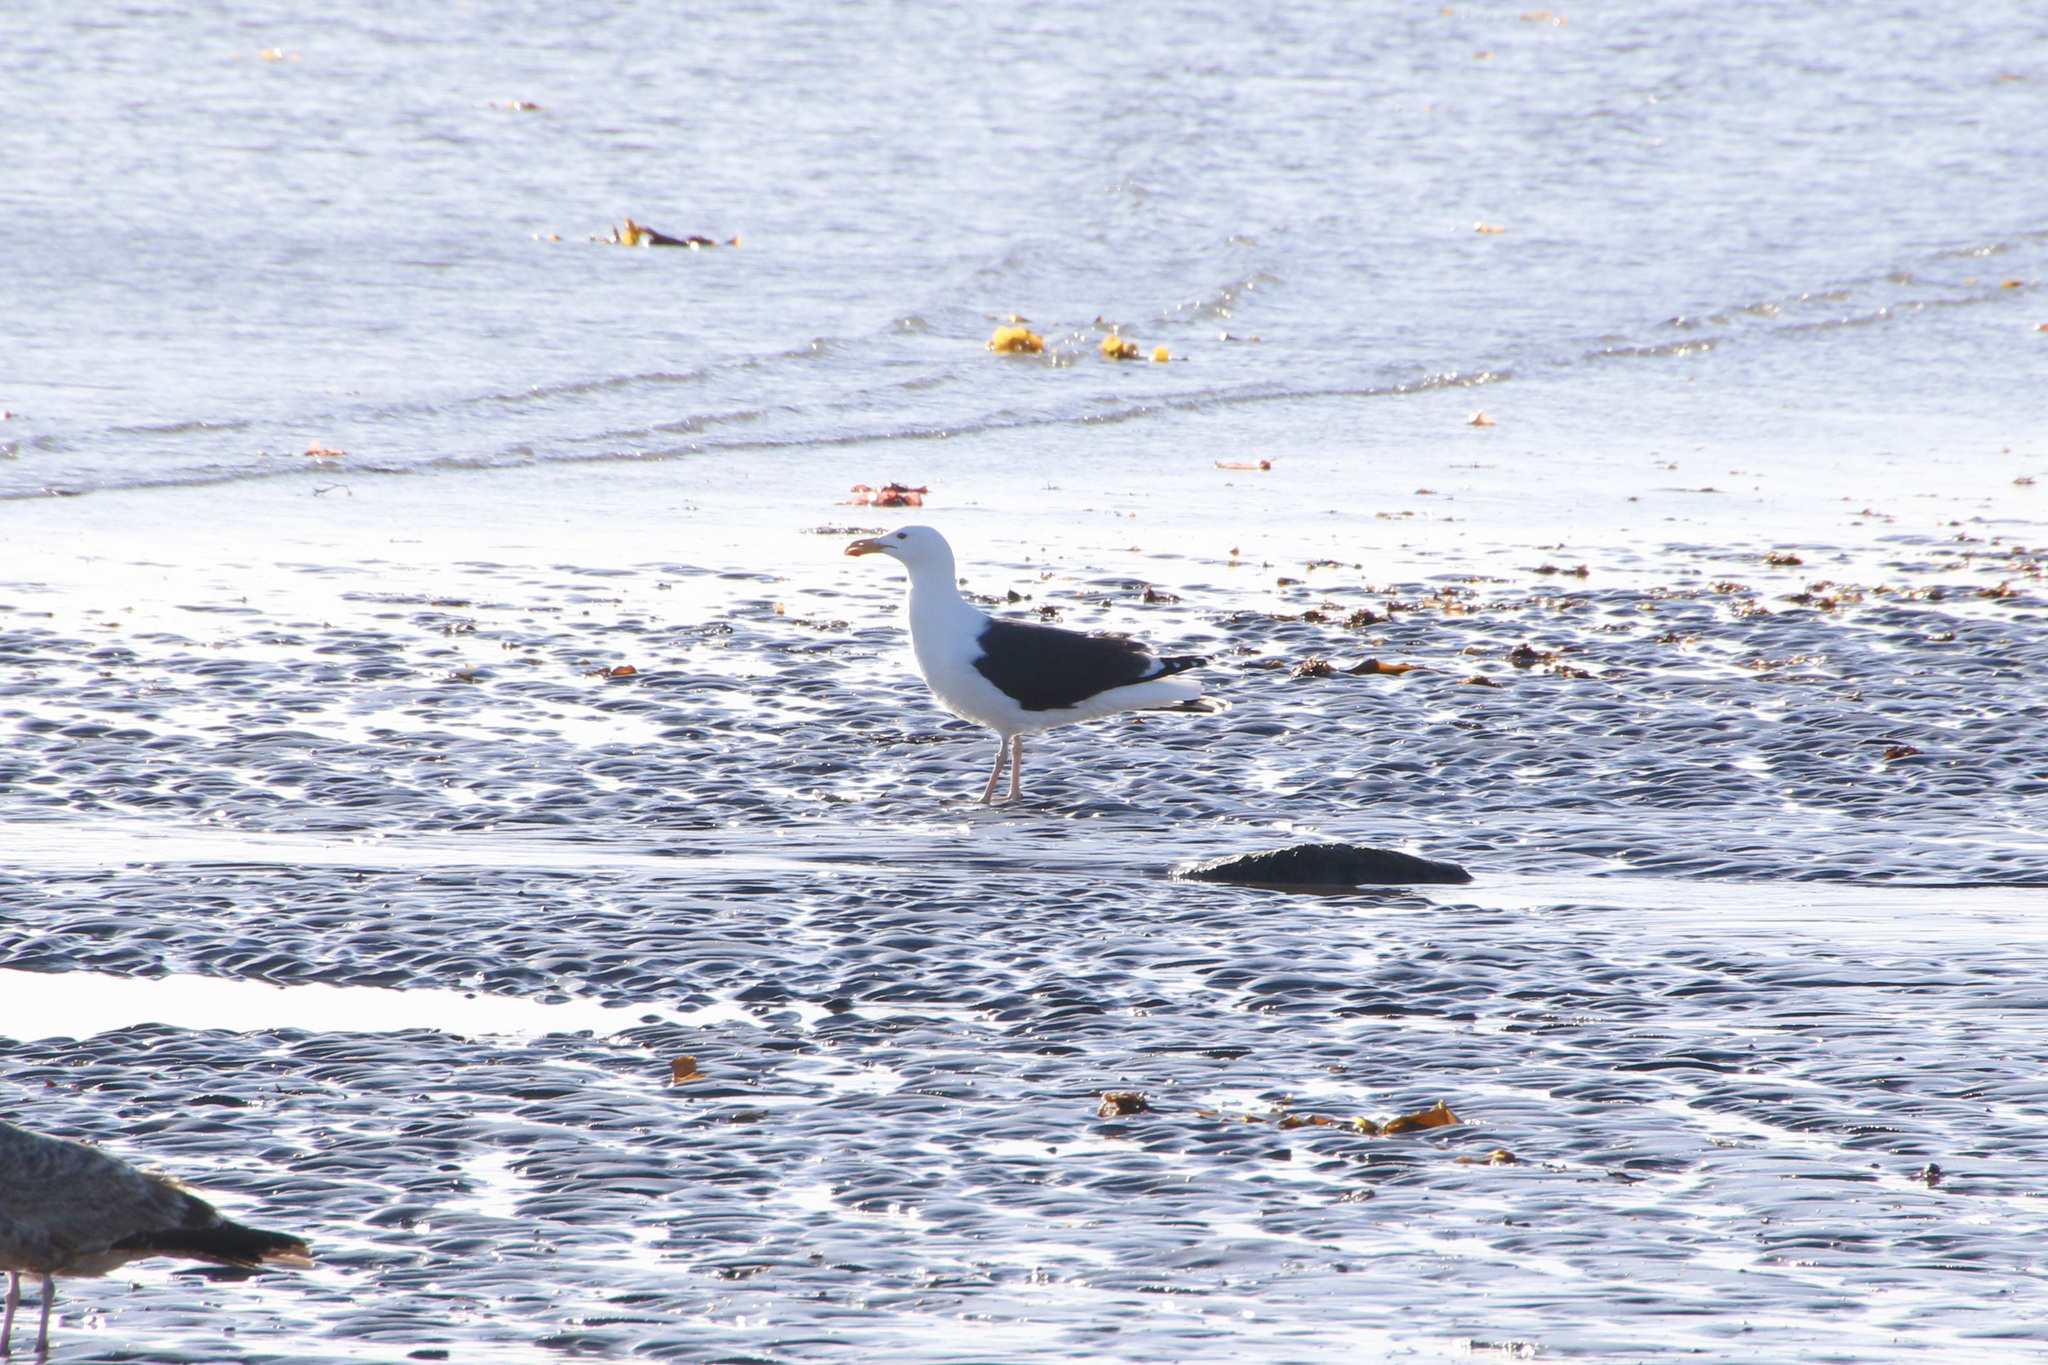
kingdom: Animalia
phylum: Chordata
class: Aves
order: Charadriiformes
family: Laridae
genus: Larus
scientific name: Larus marinus
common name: Great black-backed gull
